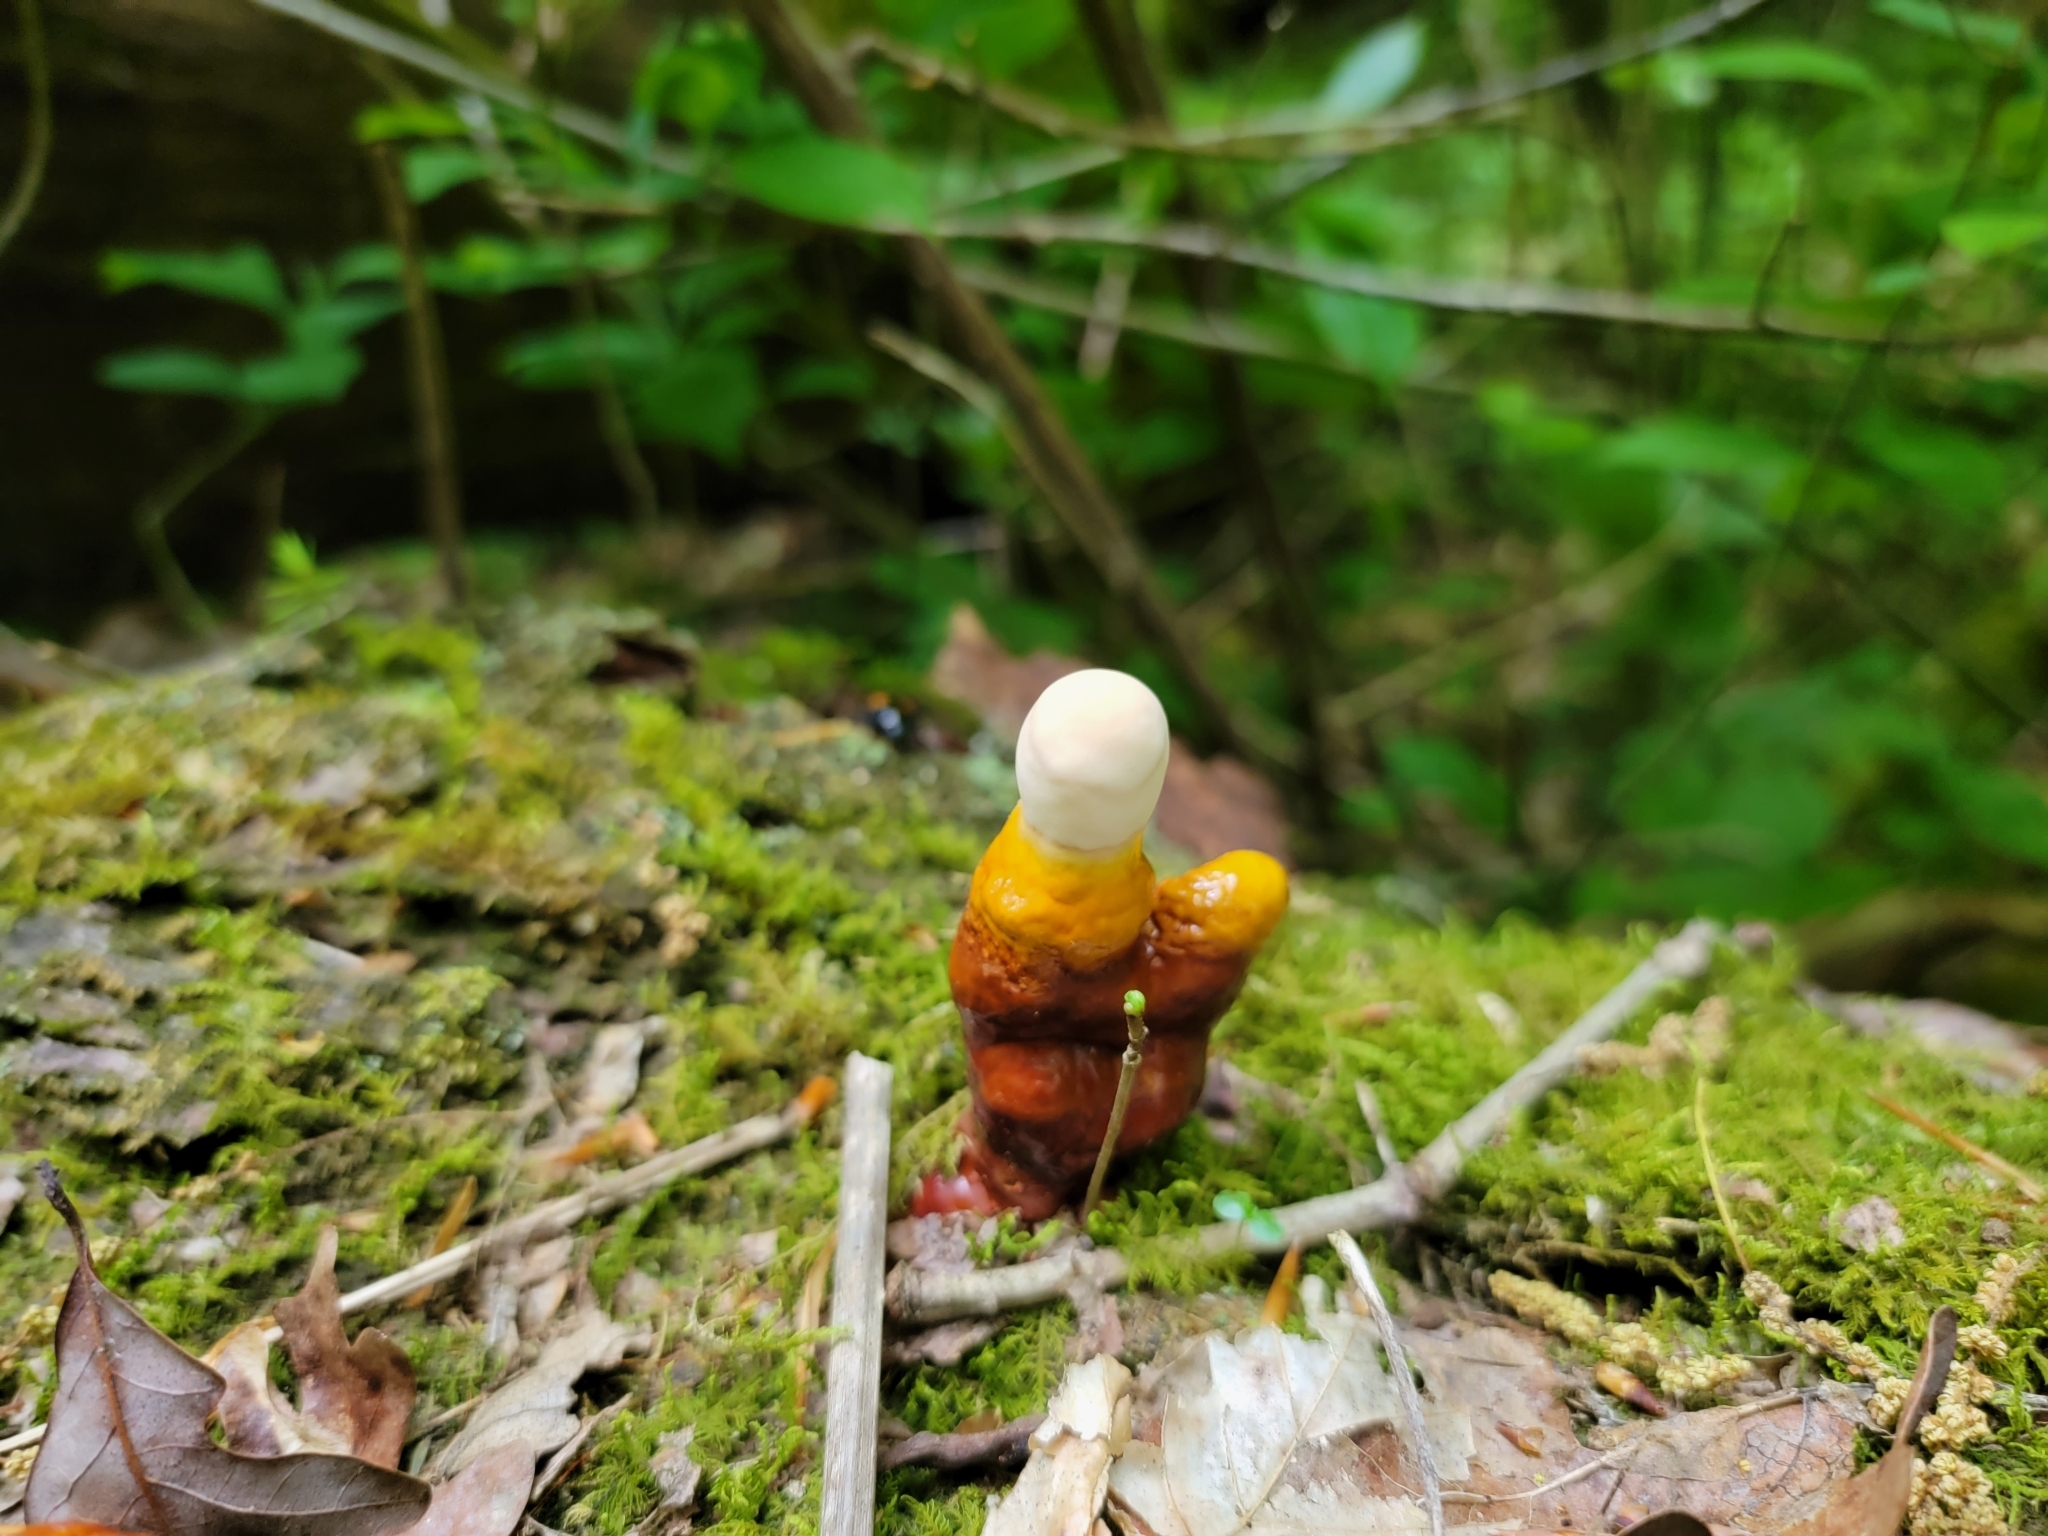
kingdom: Fungi
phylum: Basidiomycota
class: Agaricomycetes
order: Polyporales
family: Polyporaceae
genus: Ganoderma
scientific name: Ganoderma tsugae
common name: Hemlock varnish shelf
